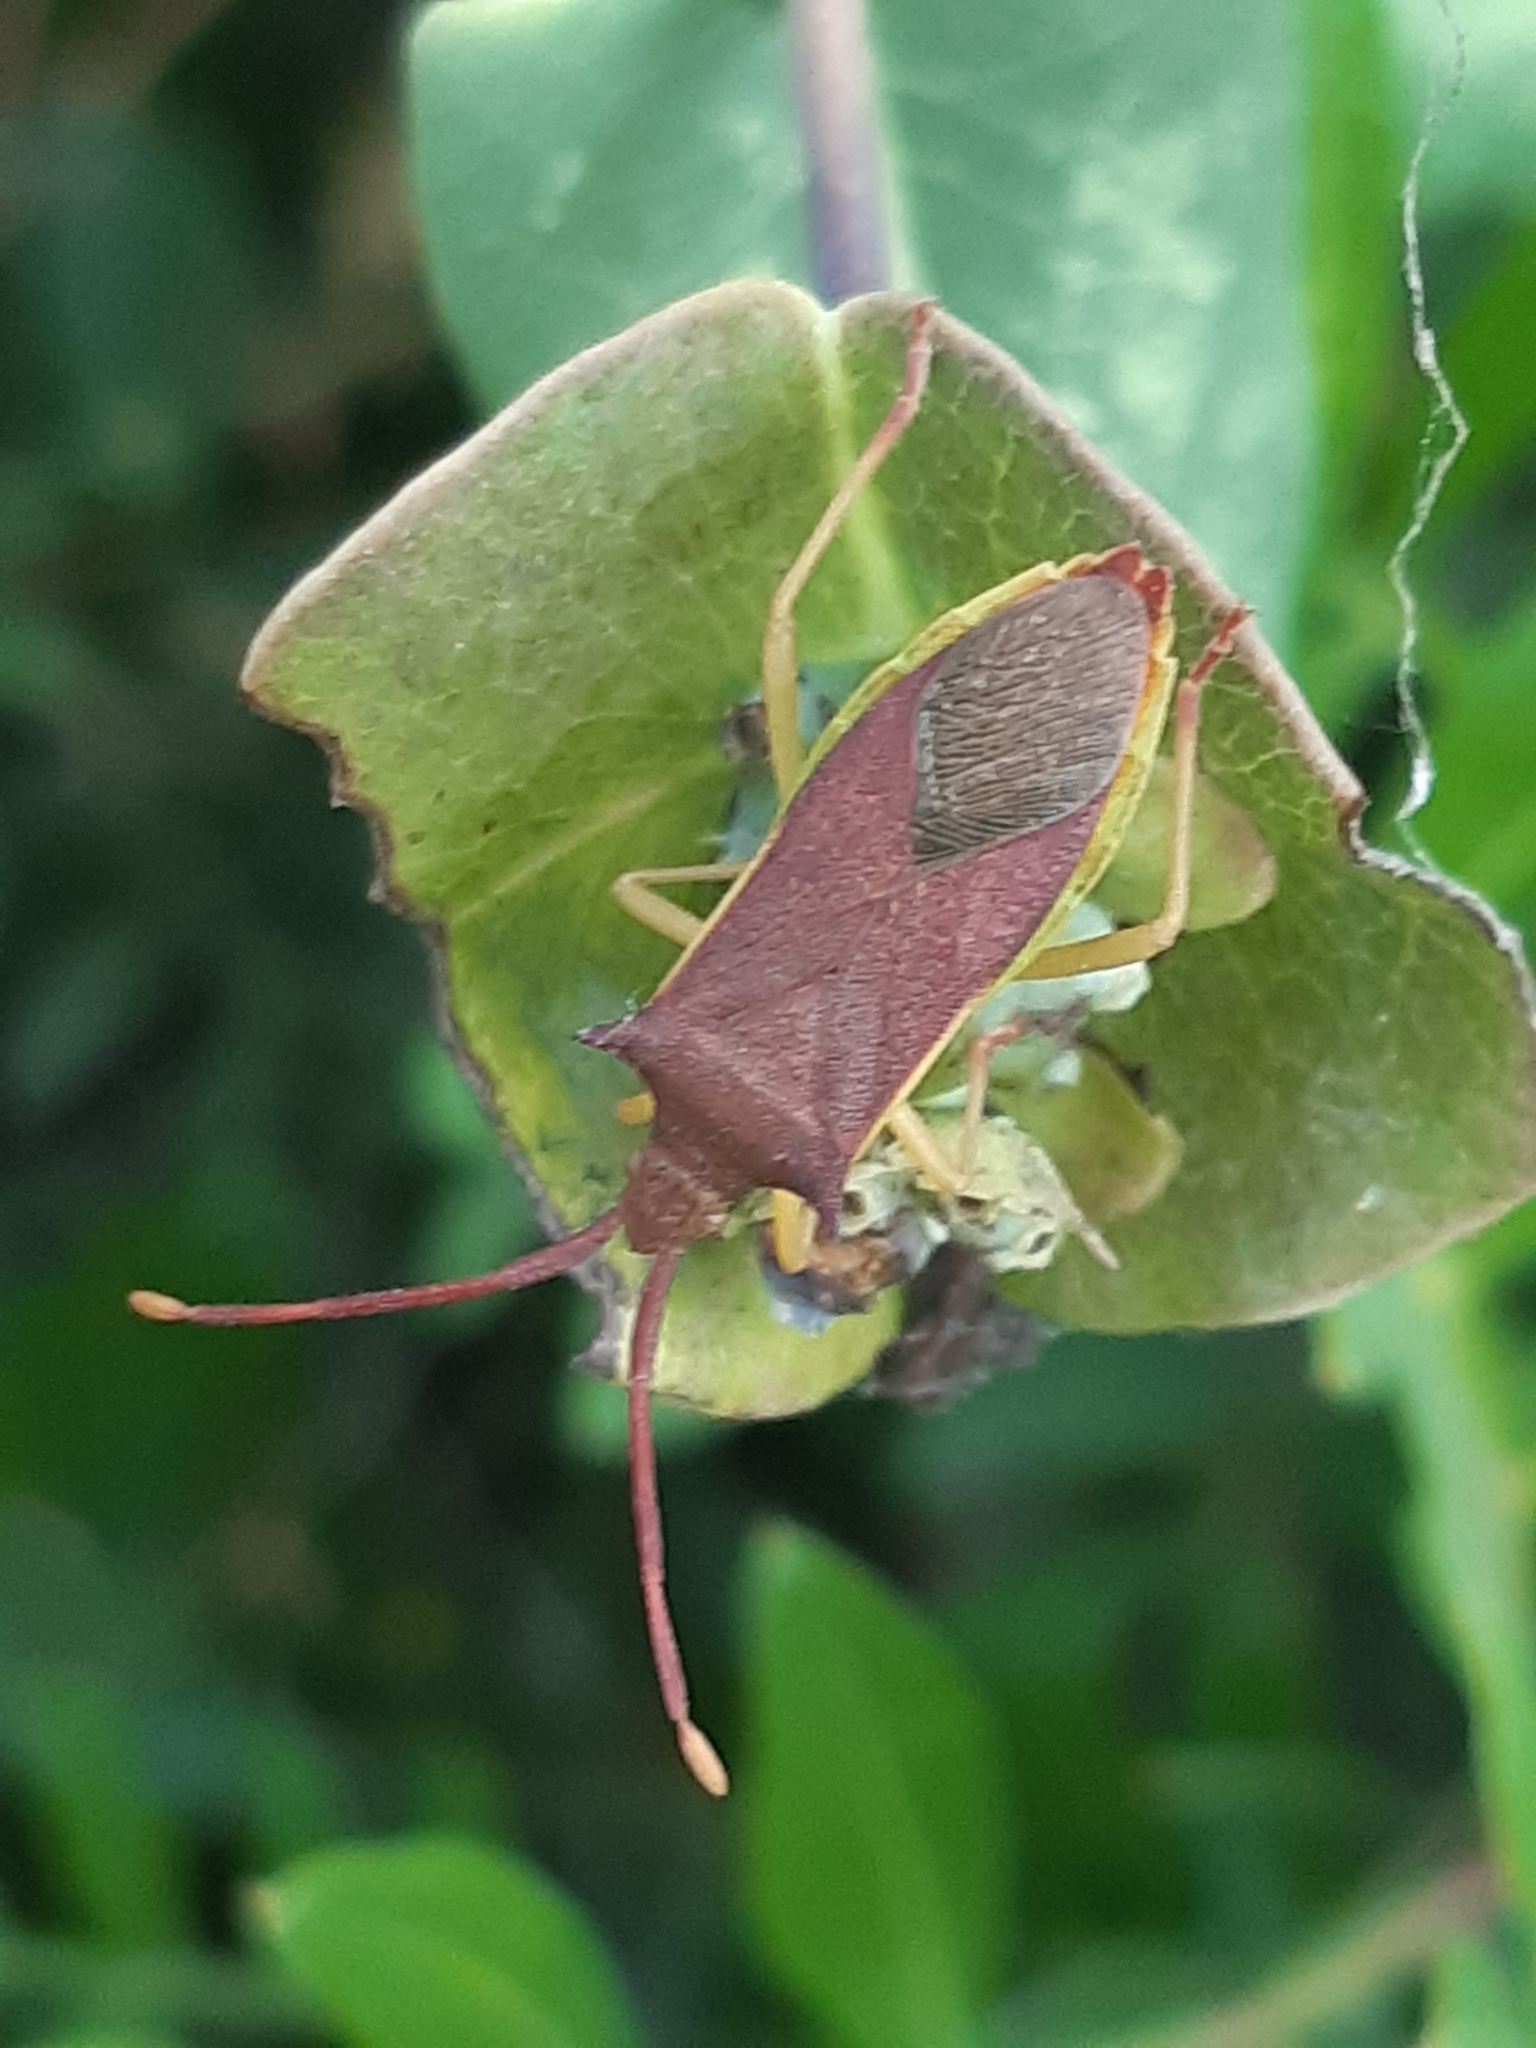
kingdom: Animalia
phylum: Arthropoda
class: Insecta
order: Hemiptera
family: Coreidae
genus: Gonocerus
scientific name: Gonocerus insidiator
